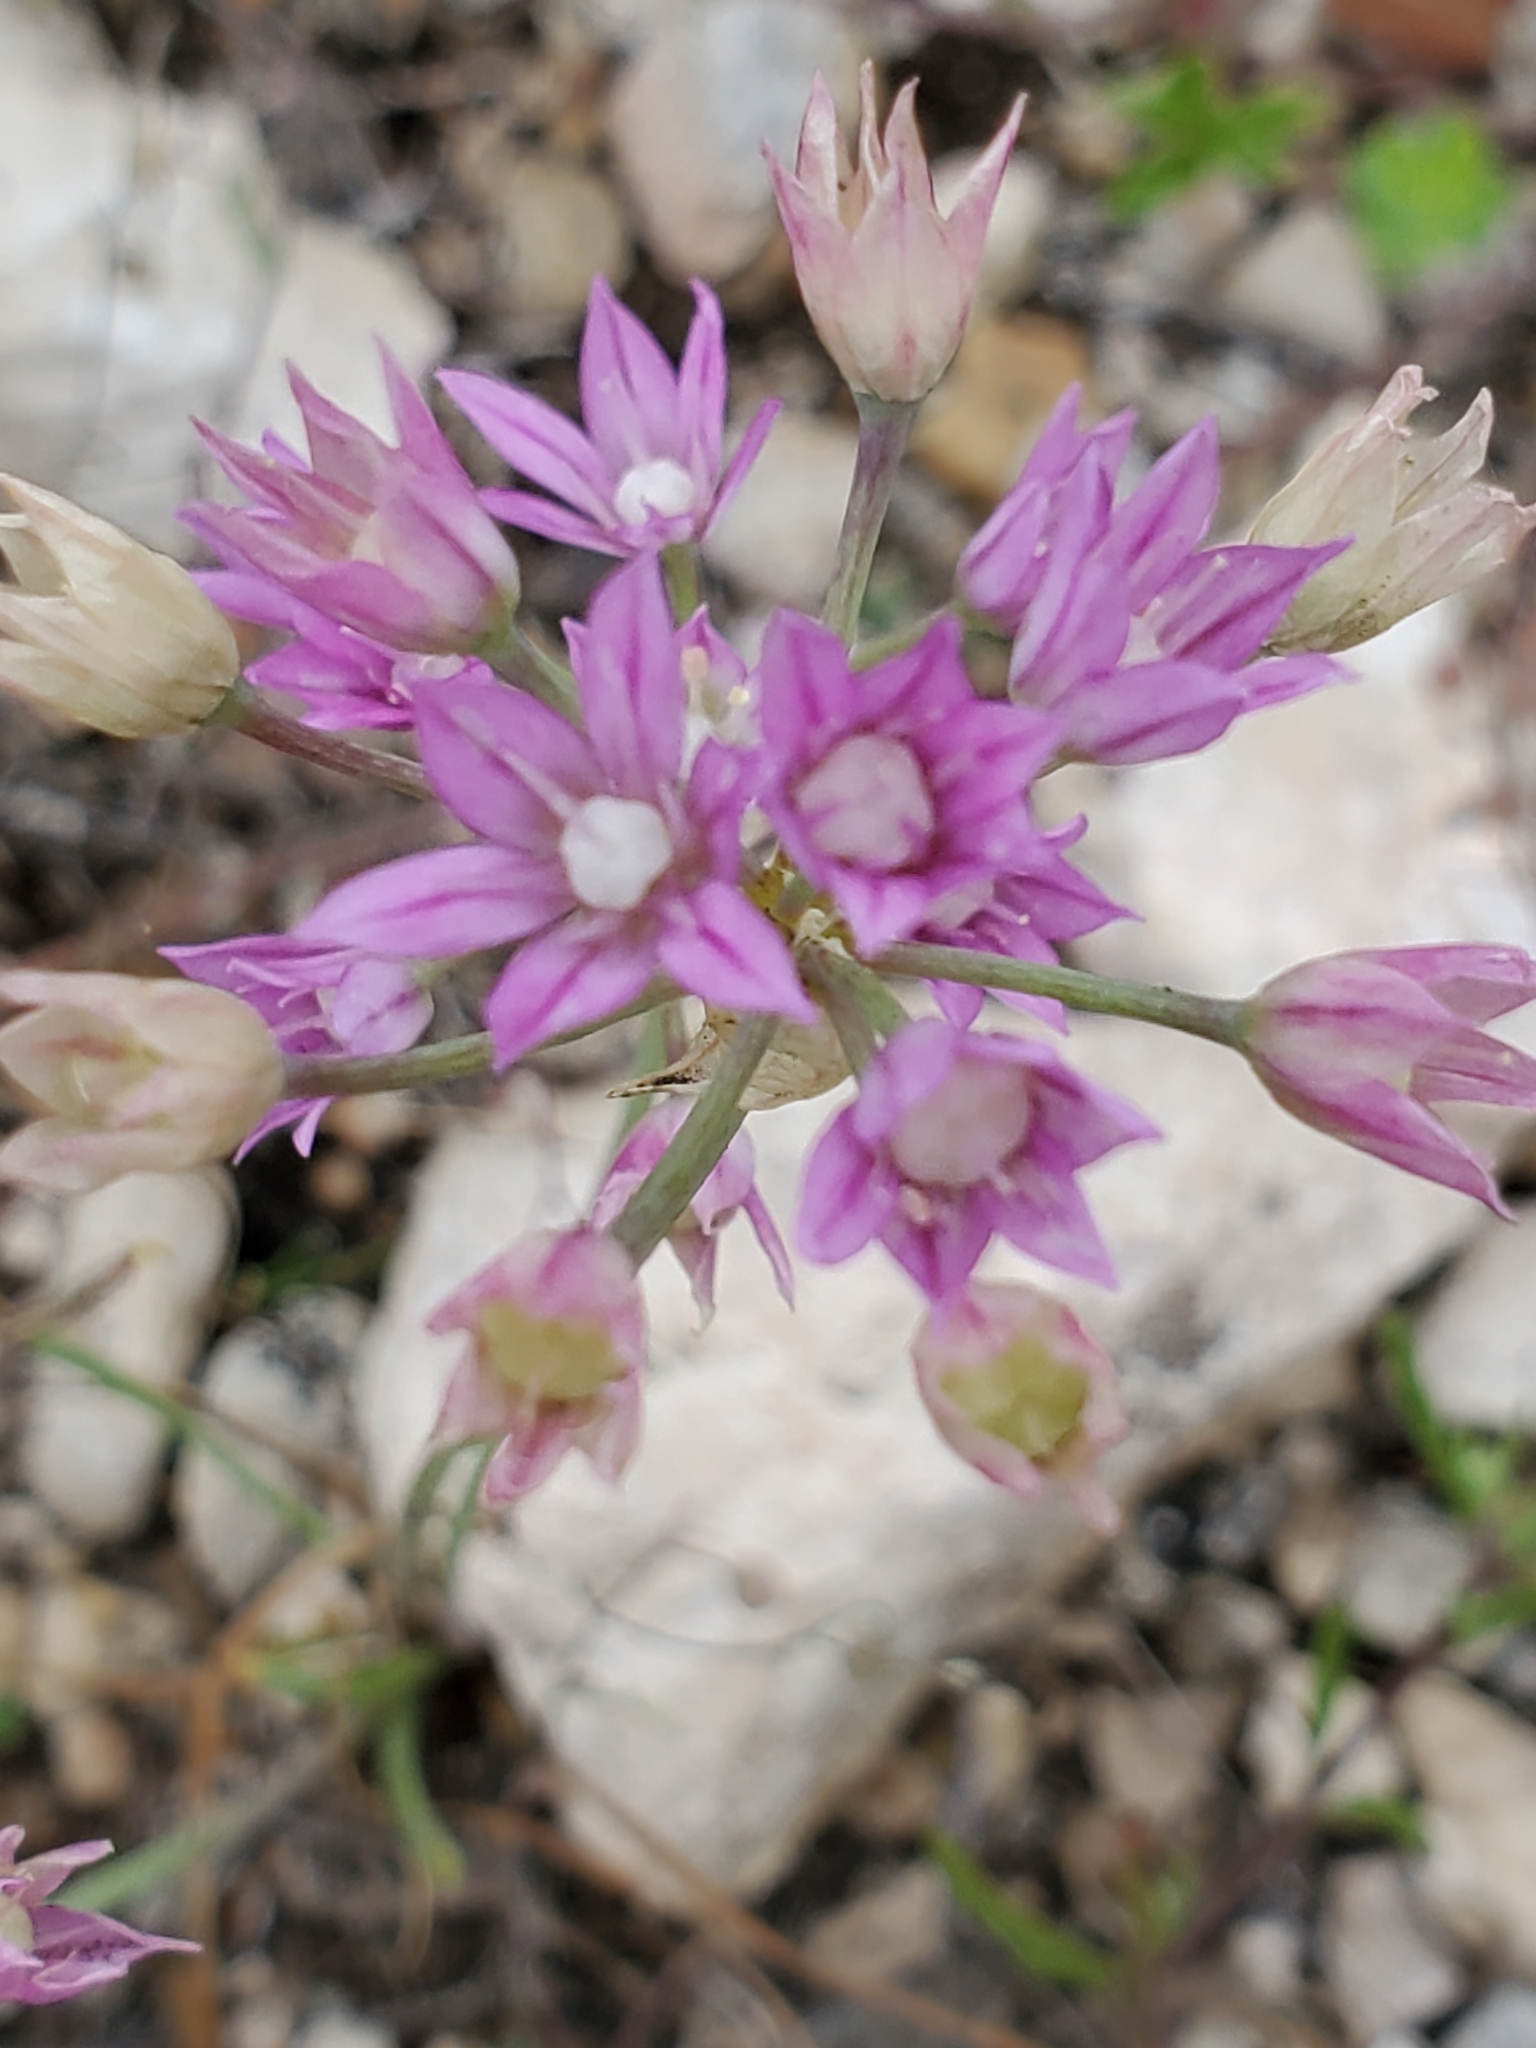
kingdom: Plantae
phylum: Tracheophyta
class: Liliopsida
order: Asparagales
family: Amaryllidaceae
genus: Allium
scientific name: Allium drummondii
